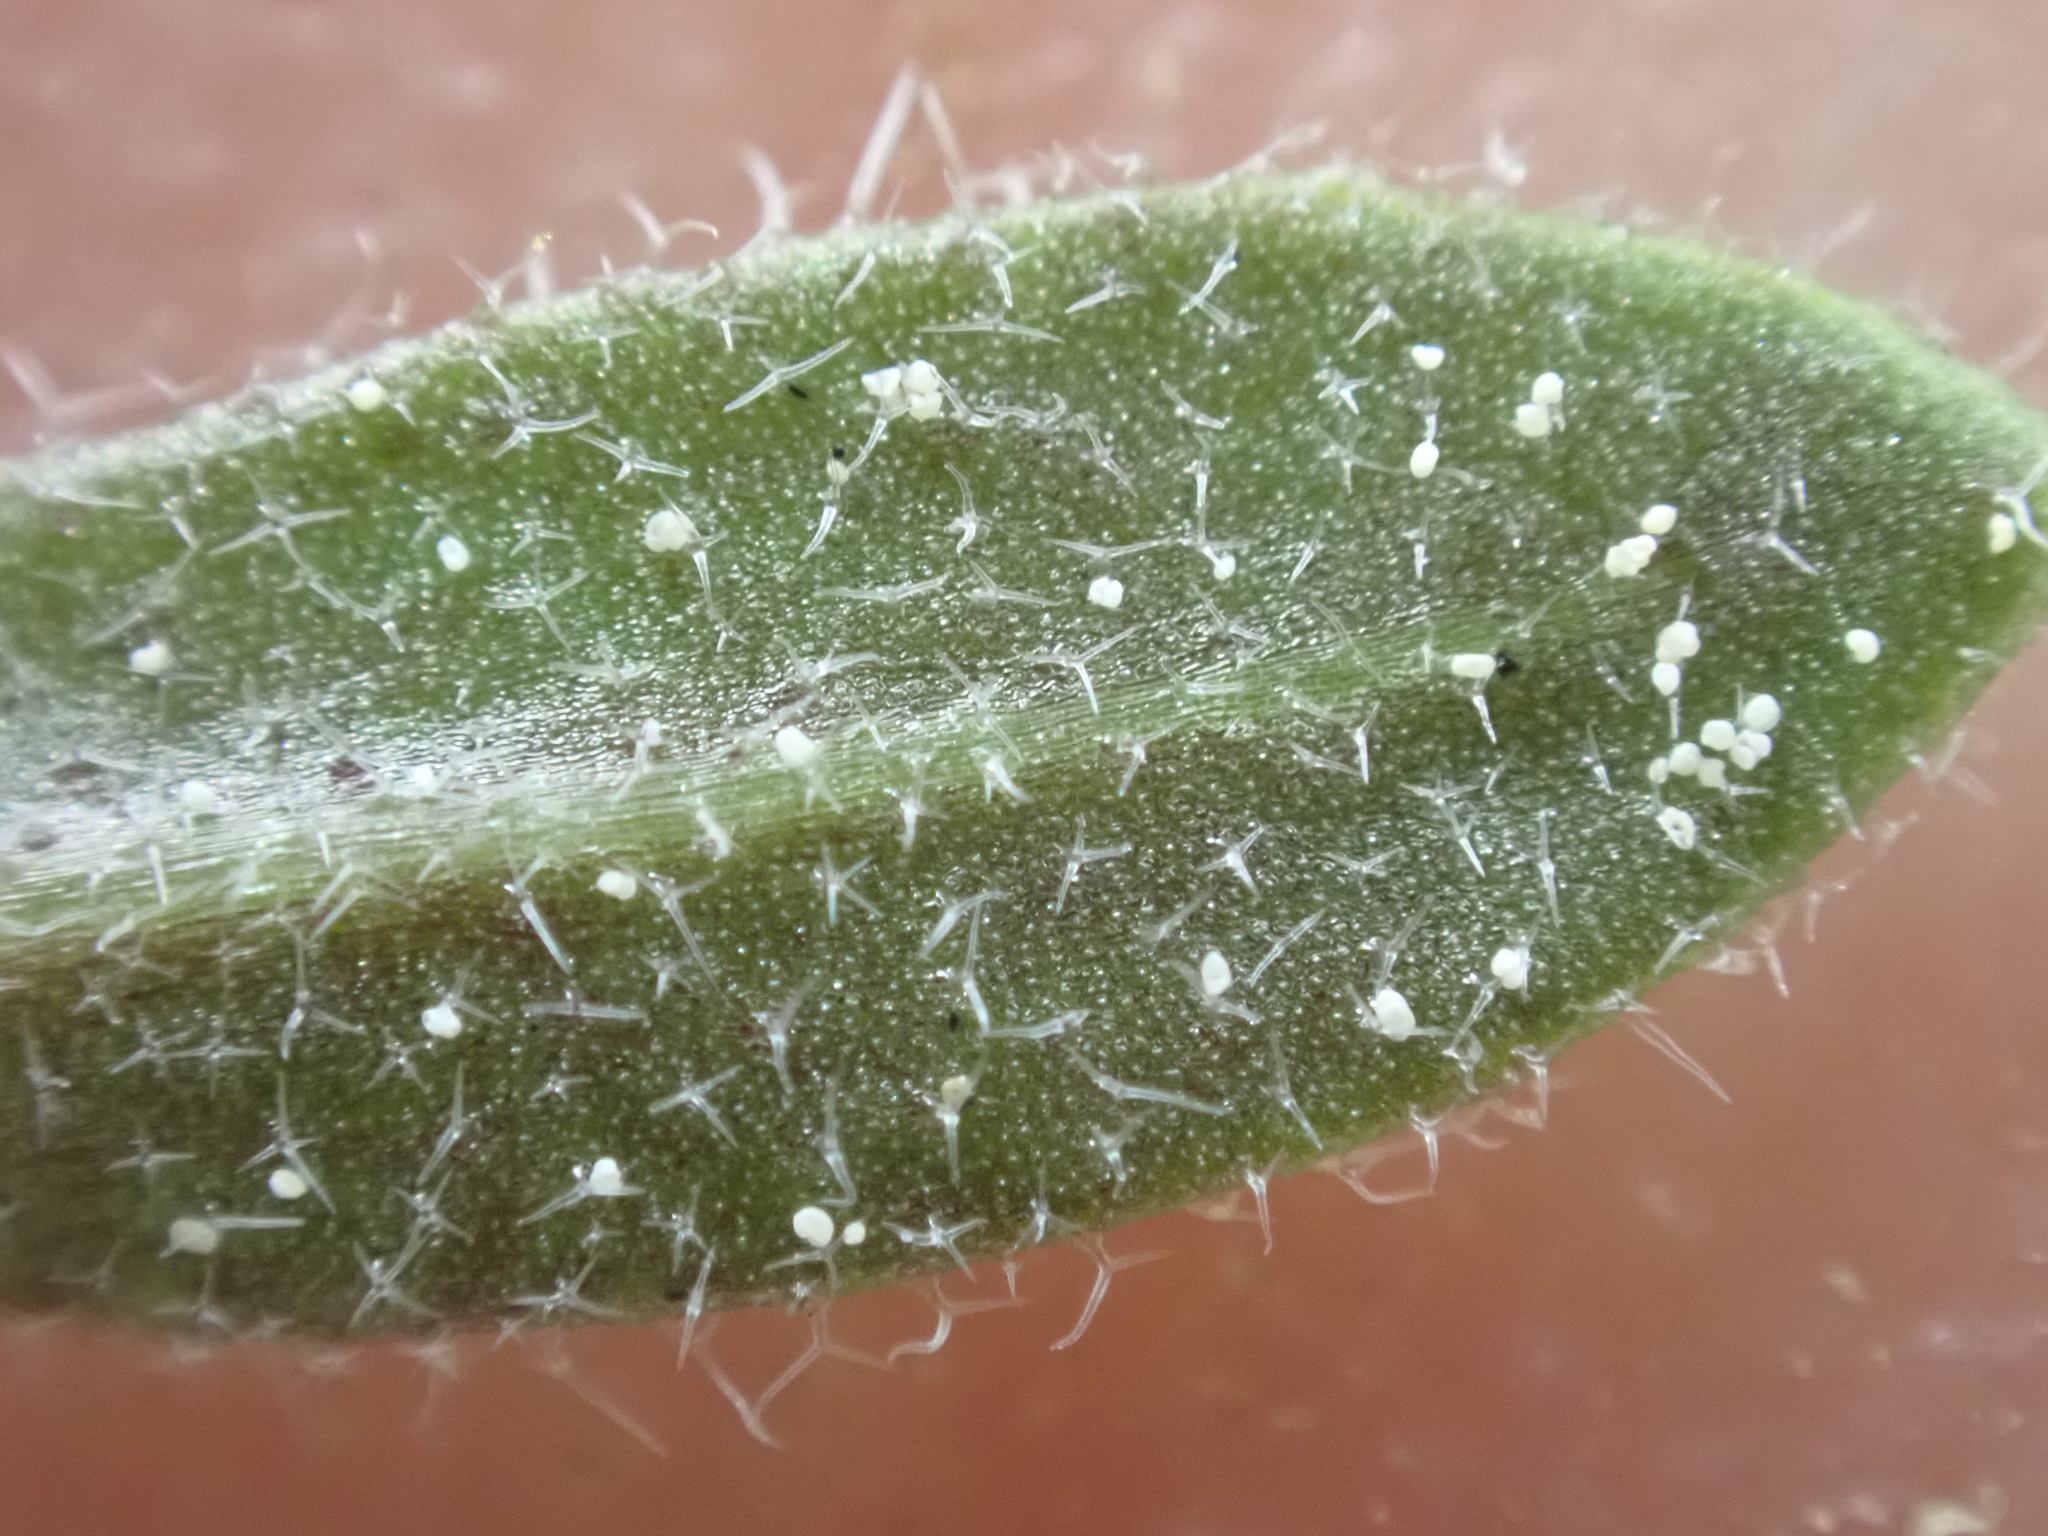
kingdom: Plantae
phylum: Tracheophyta
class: Magnoliopsida
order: Brassicales
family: Brassicaceae
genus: Draba
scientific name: Draba albertina
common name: Slender draba
